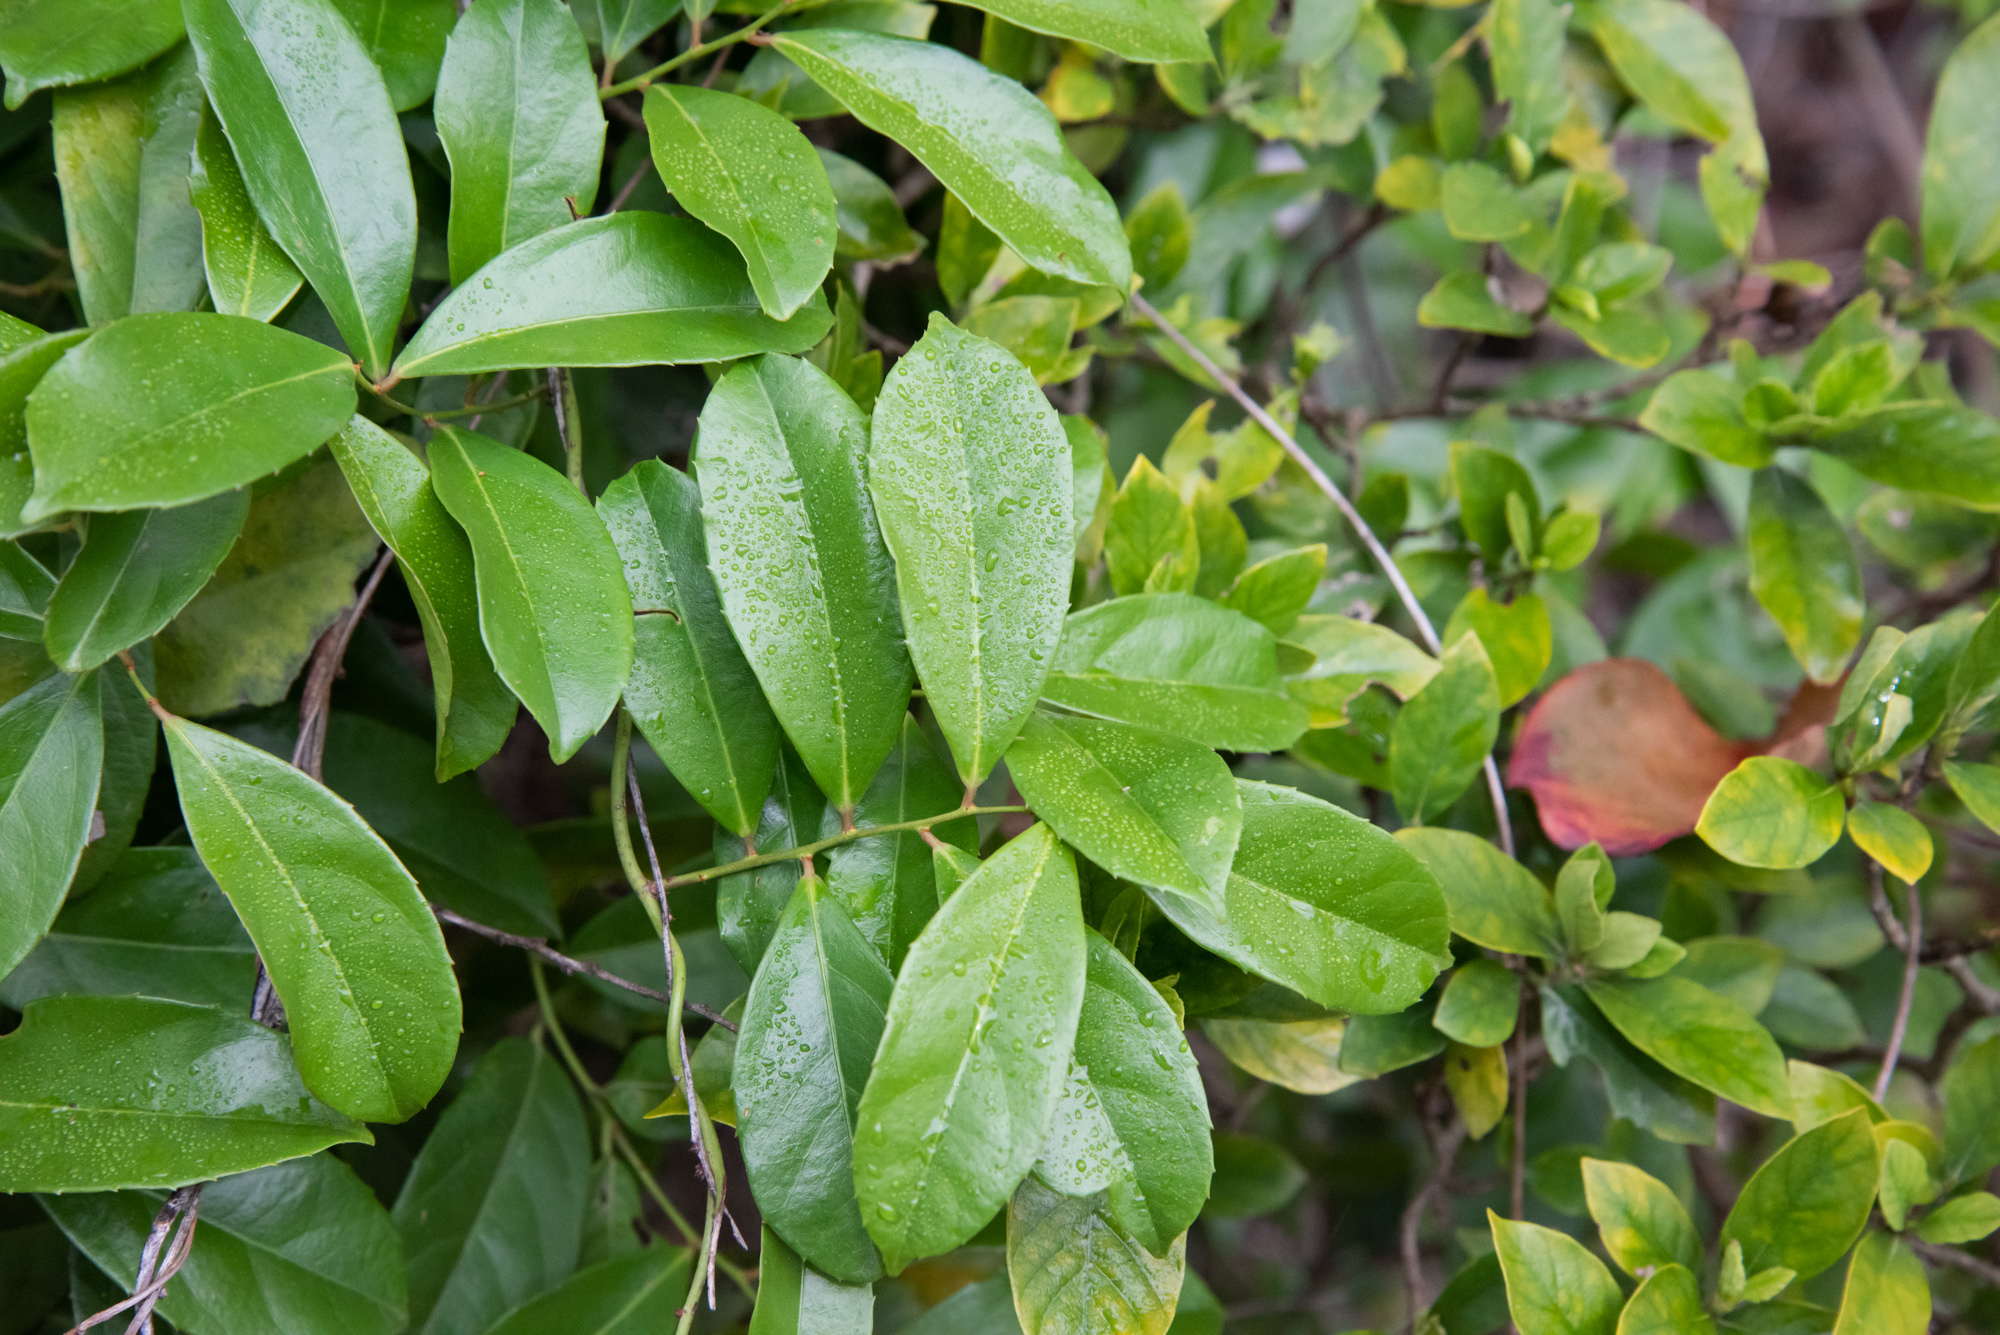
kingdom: Plantae
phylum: Tracheophyta
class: Magnoliopsida
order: Celastrales
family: Celastraceae
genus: Celastrus
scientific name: Celastrus hindsii
